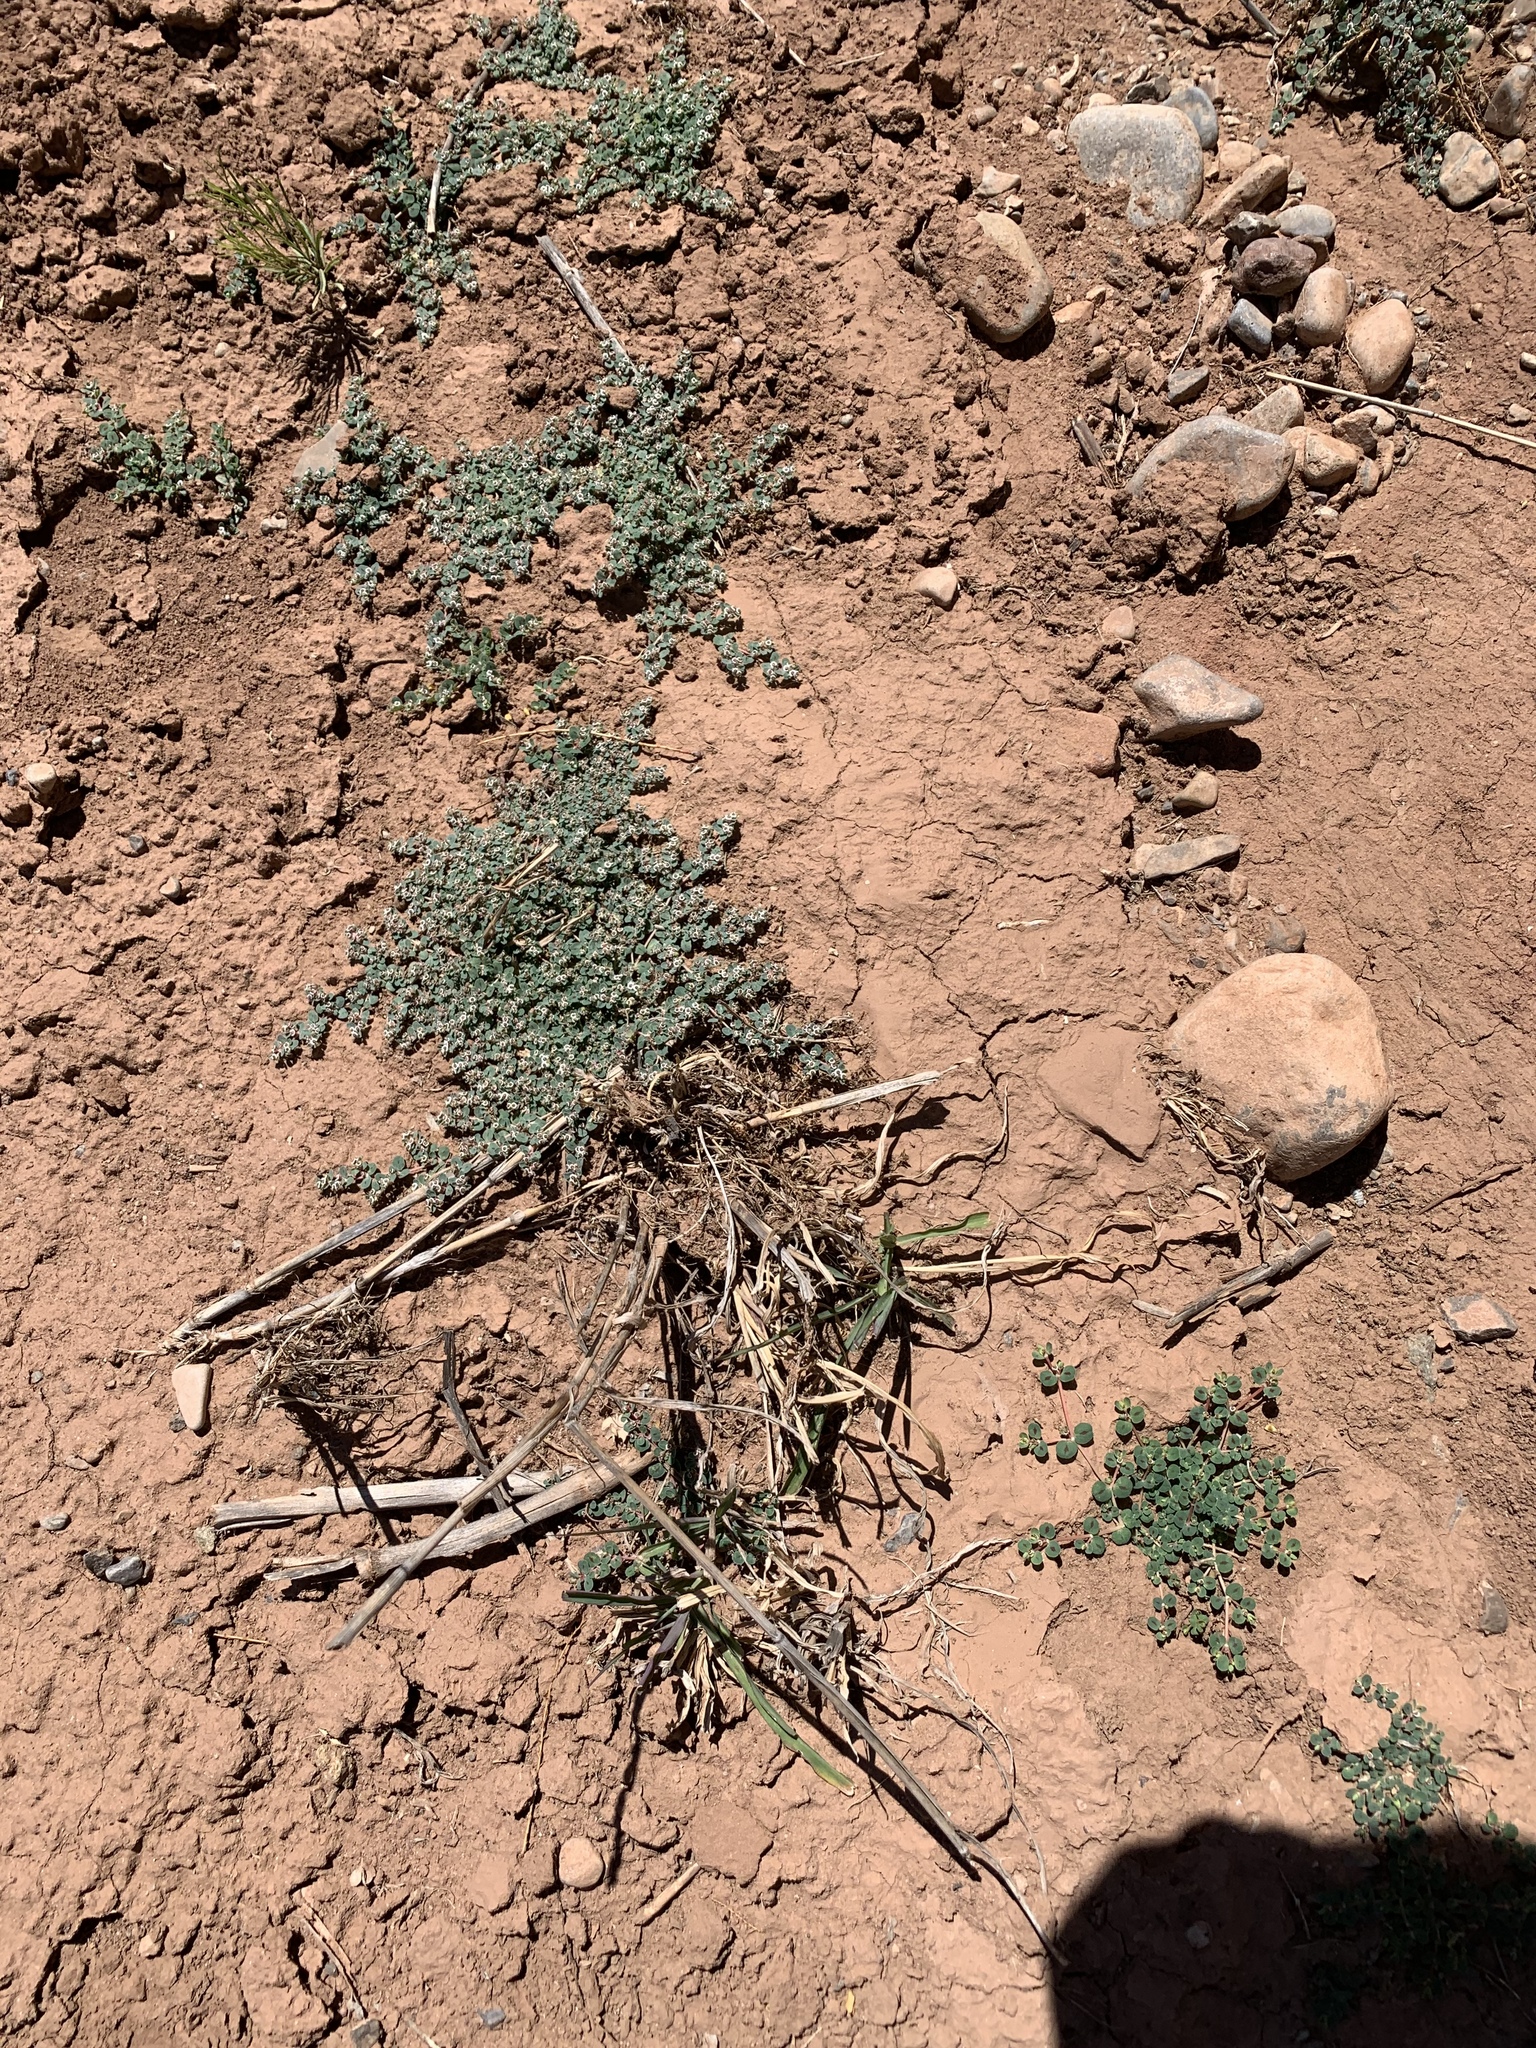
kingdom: Plantae
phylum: Tracheophyta
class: Magnoliopsida
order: Malpighiales
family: Euphorbiaceae
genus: Euphorbia
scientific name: Euphorbia albomarginata
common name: Whitemargin sandmat
